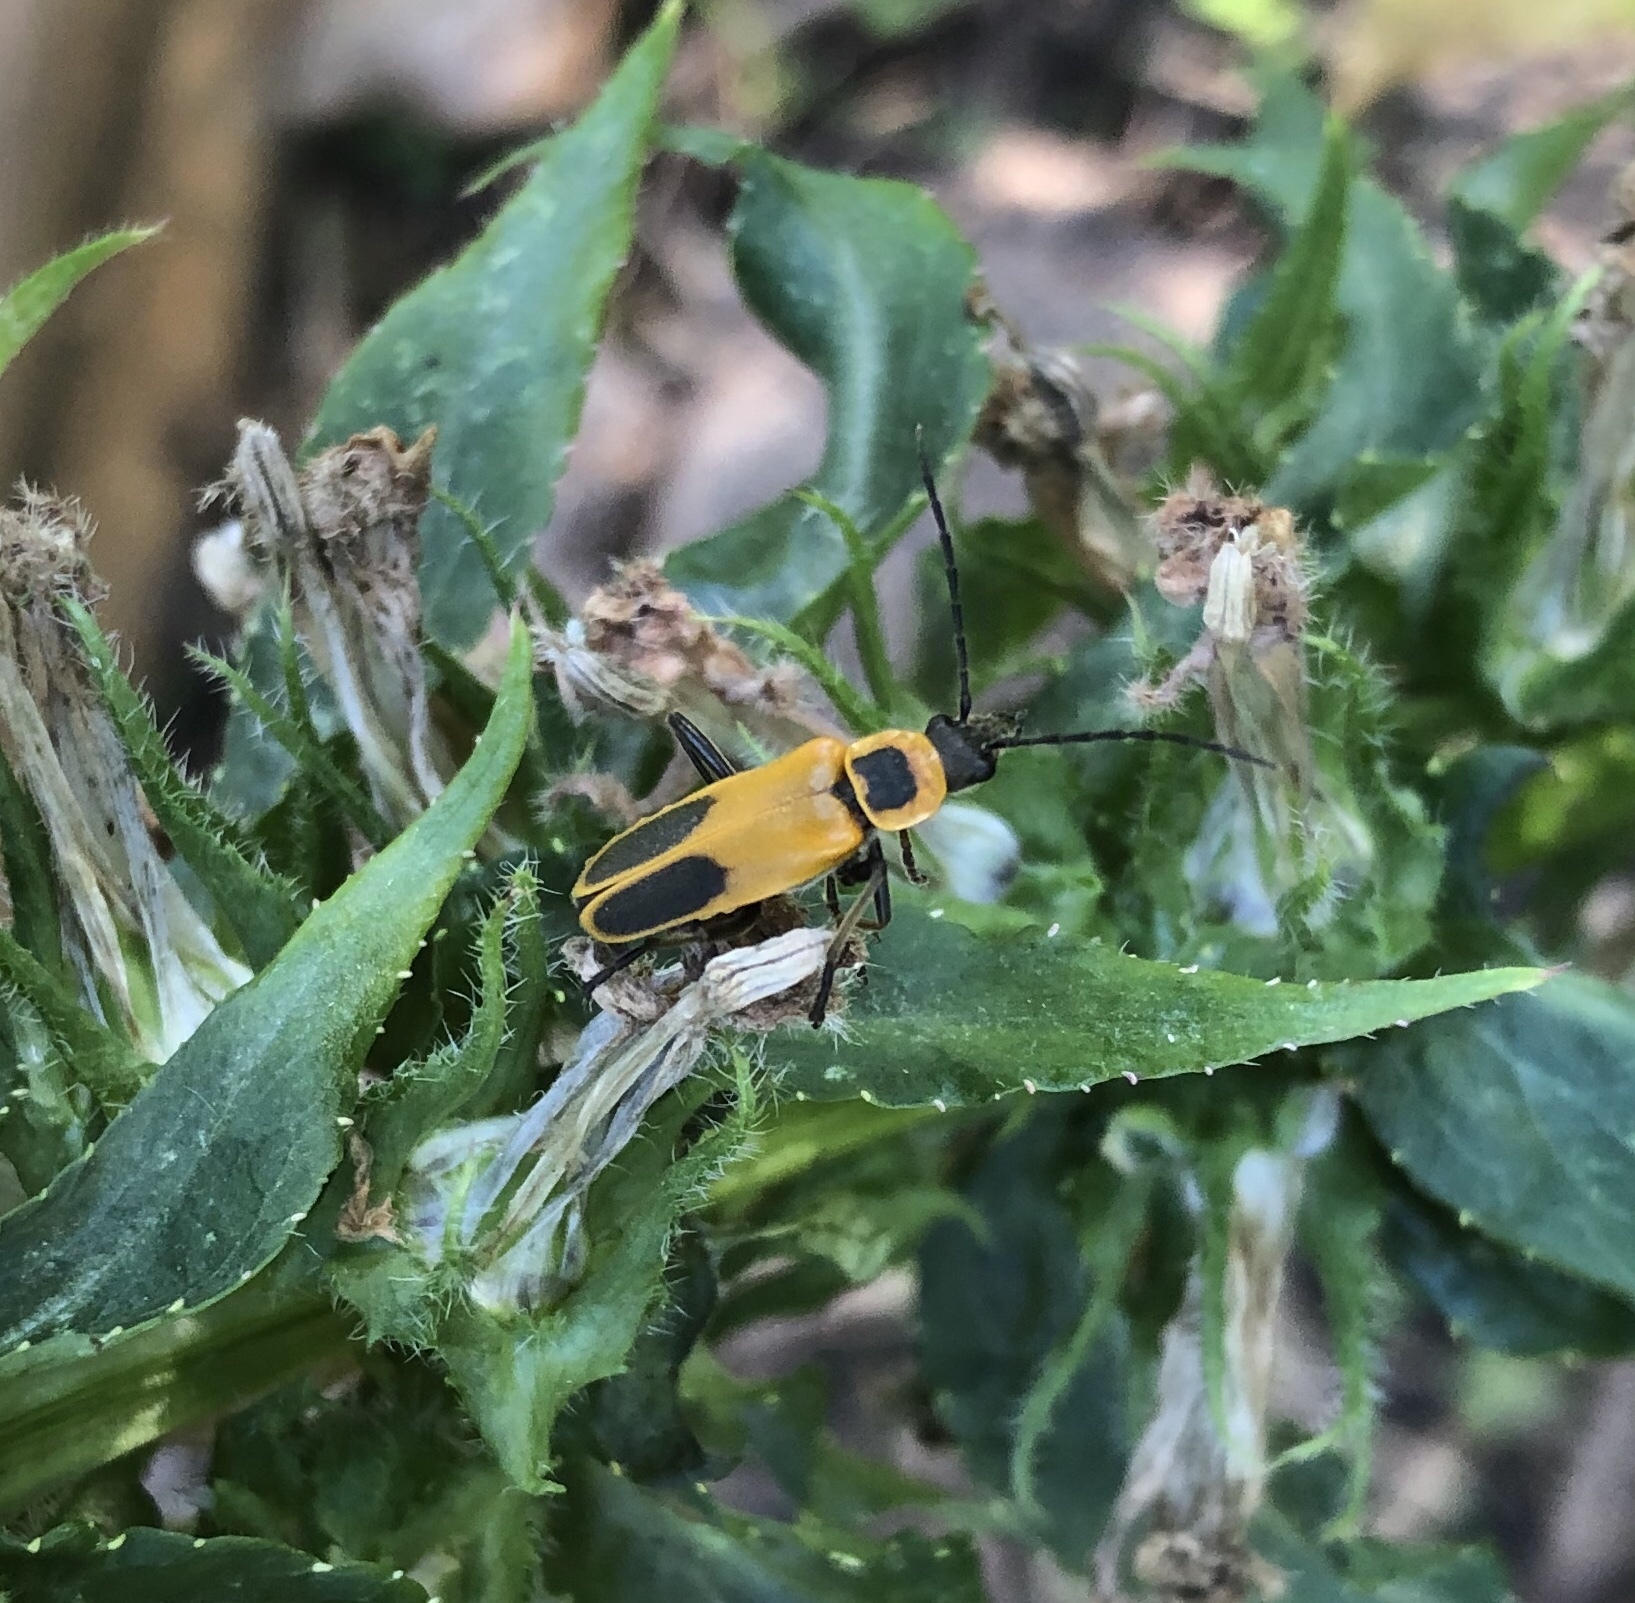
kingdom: Animalia
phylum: Arthropoda
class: Insecta
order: Coleoptera
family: Cantharidae
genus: Chauliognathus
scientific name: Chauliognathus pensylvanicus
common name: Goldenrod soldier beetle
